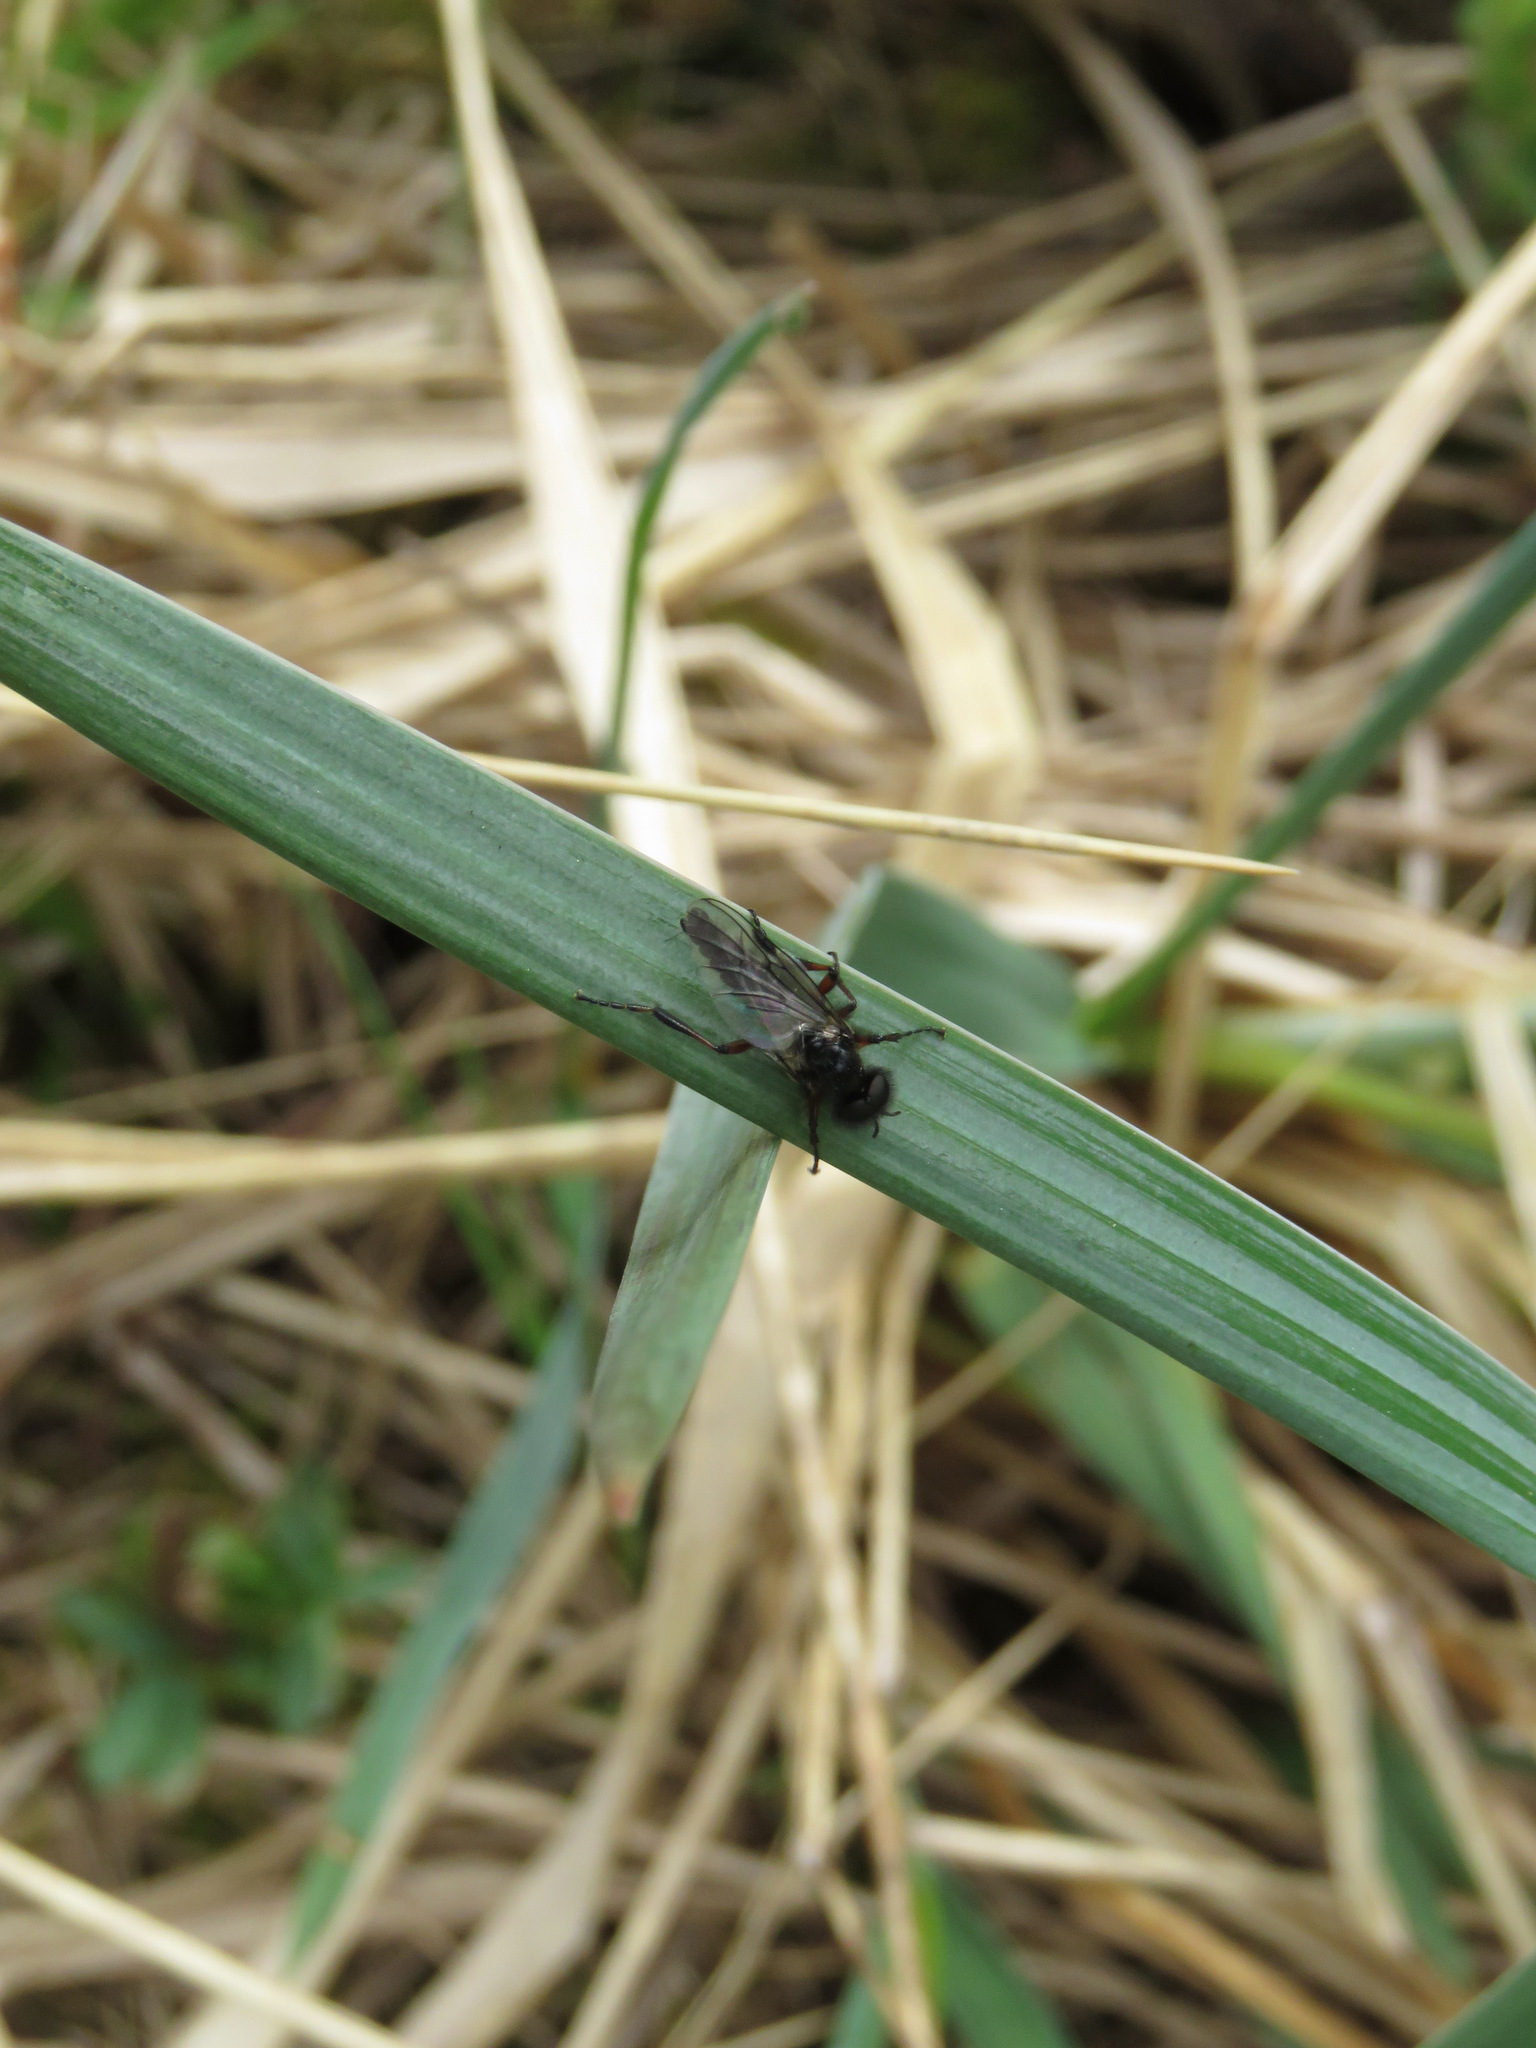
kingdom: Animalia
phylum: Arthropoda
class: Insecta
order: Diptera
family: Bibionidae
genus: Bibio
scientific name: Bibio
